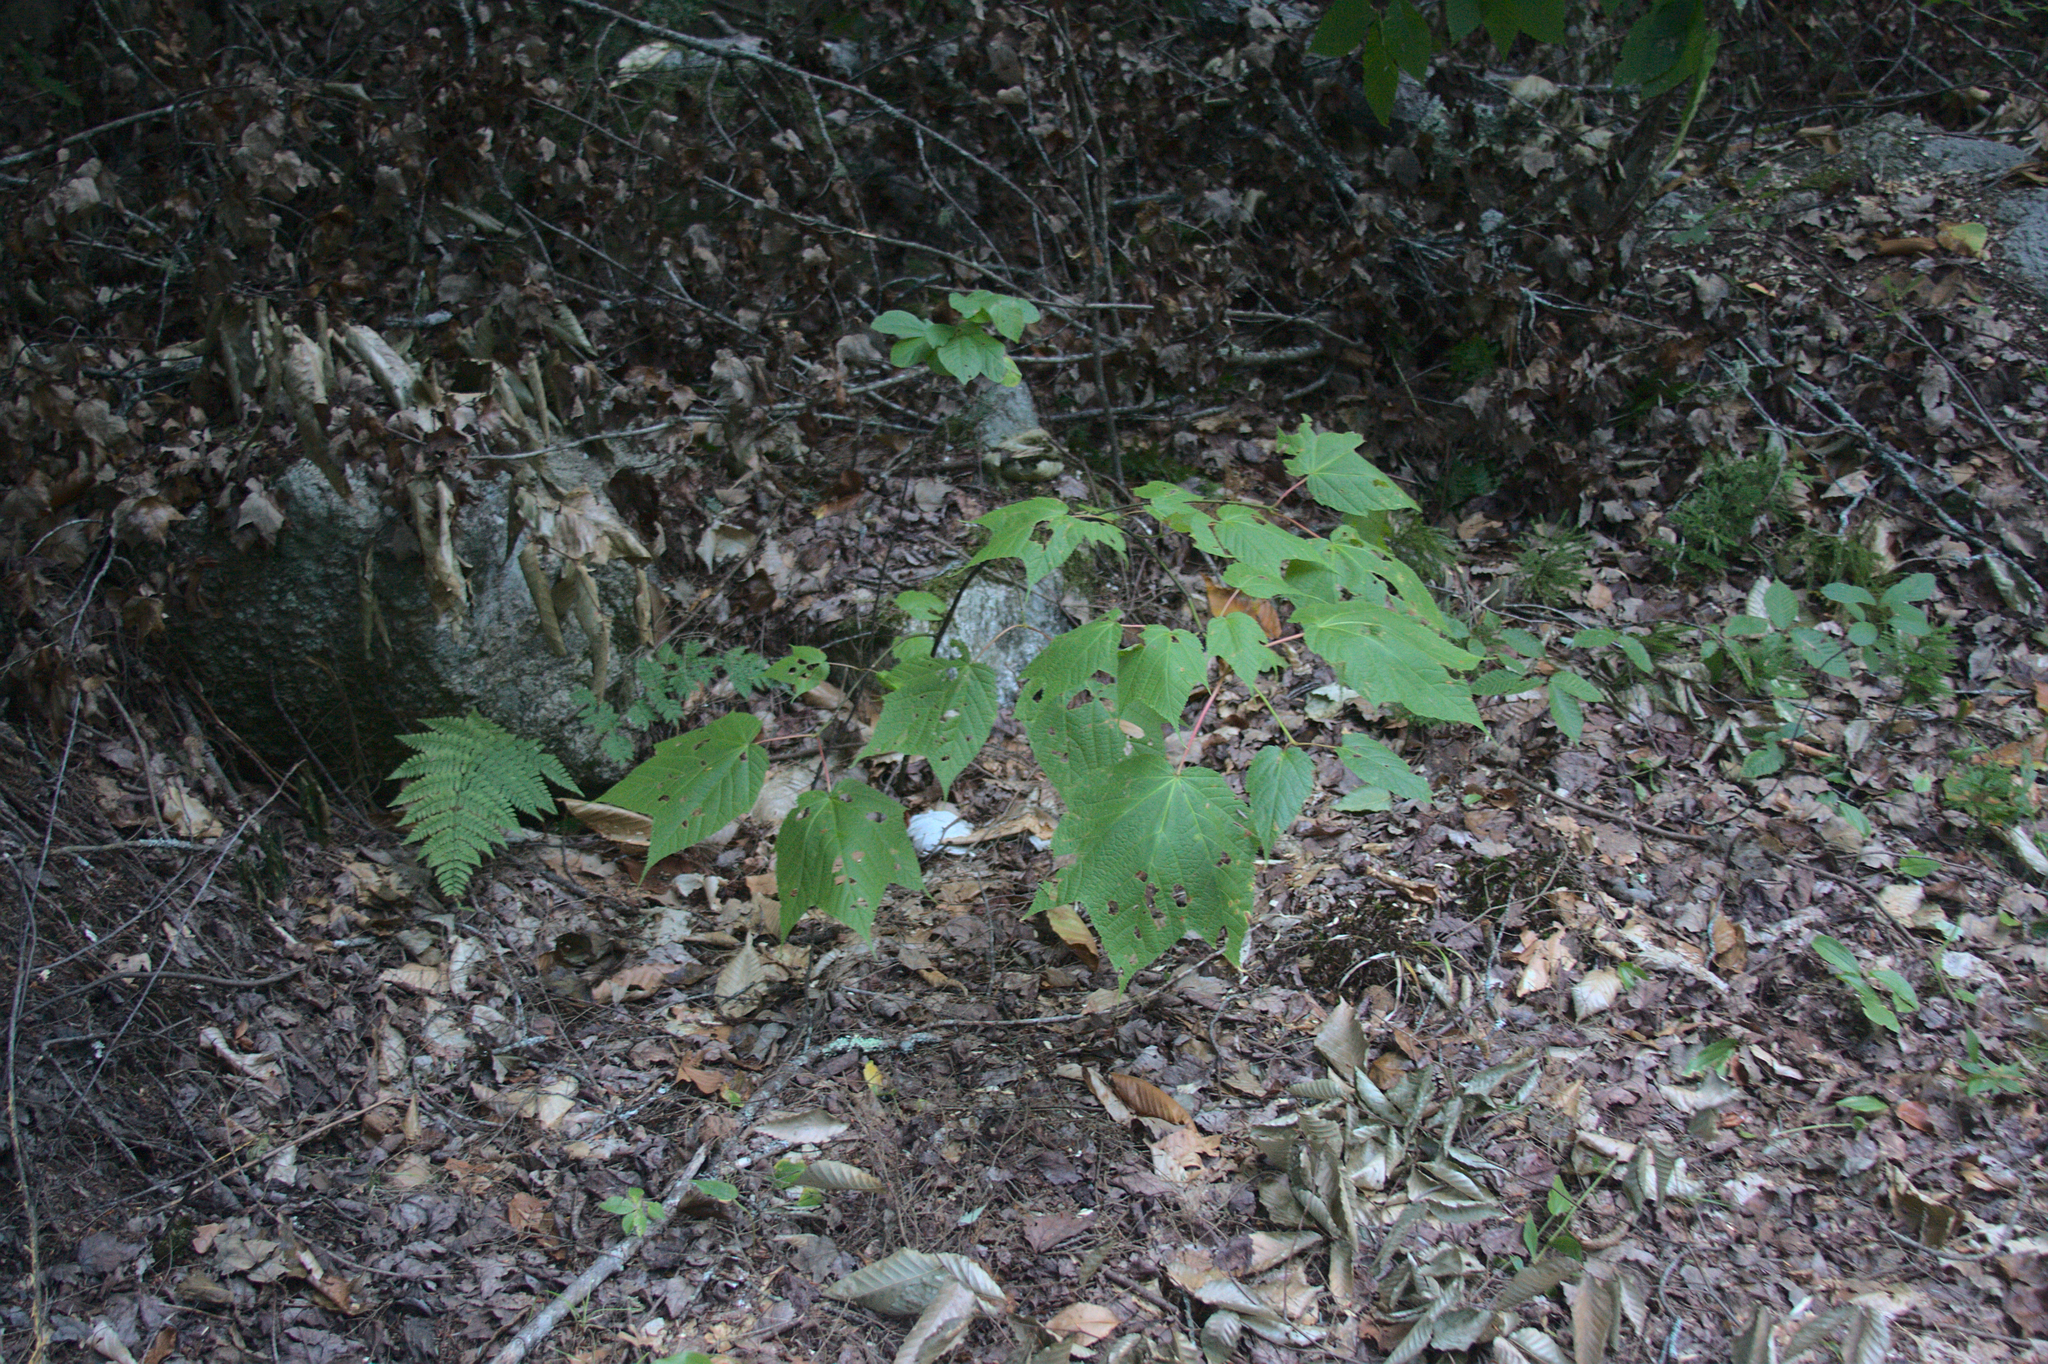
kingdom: Plantae
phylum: Tracheophyta
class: Magnoliopsida
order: Sapindales
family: Sapindaceae
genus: Acer
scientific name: Acer pensylvanicum
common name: Moosewood
